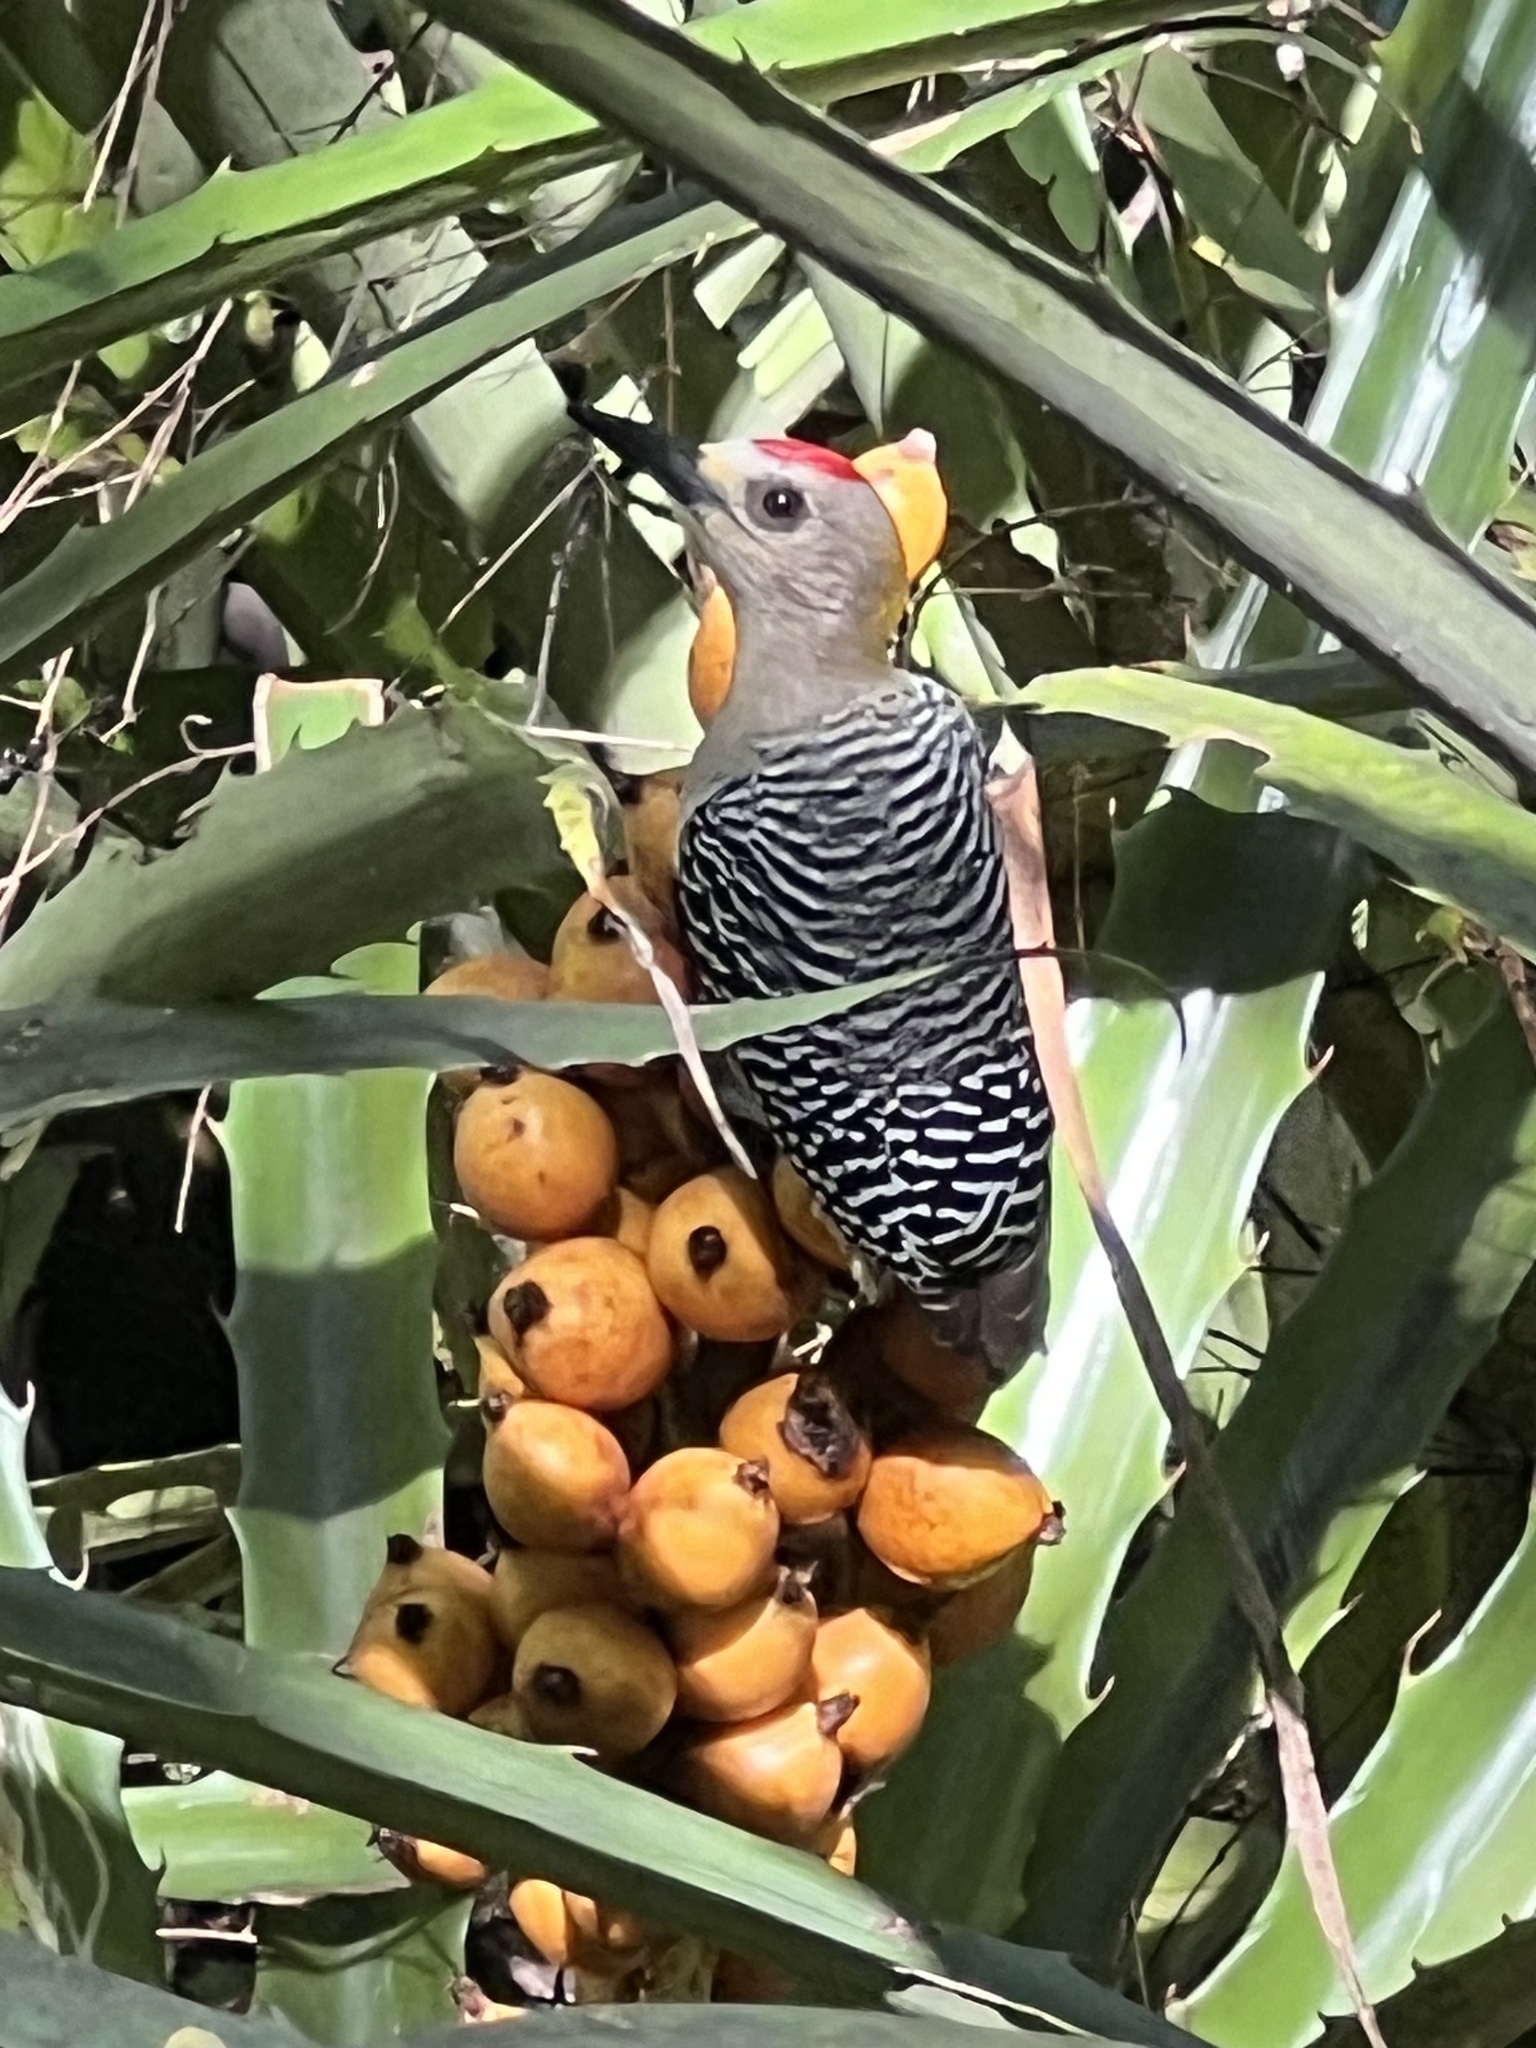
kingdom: Animalia
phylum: Chordata
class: Aves
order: Piciformes
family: Picidae
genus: Melanerpes
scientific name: Melanerpes hoffmannii
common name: Hoffmann's woodpecker
